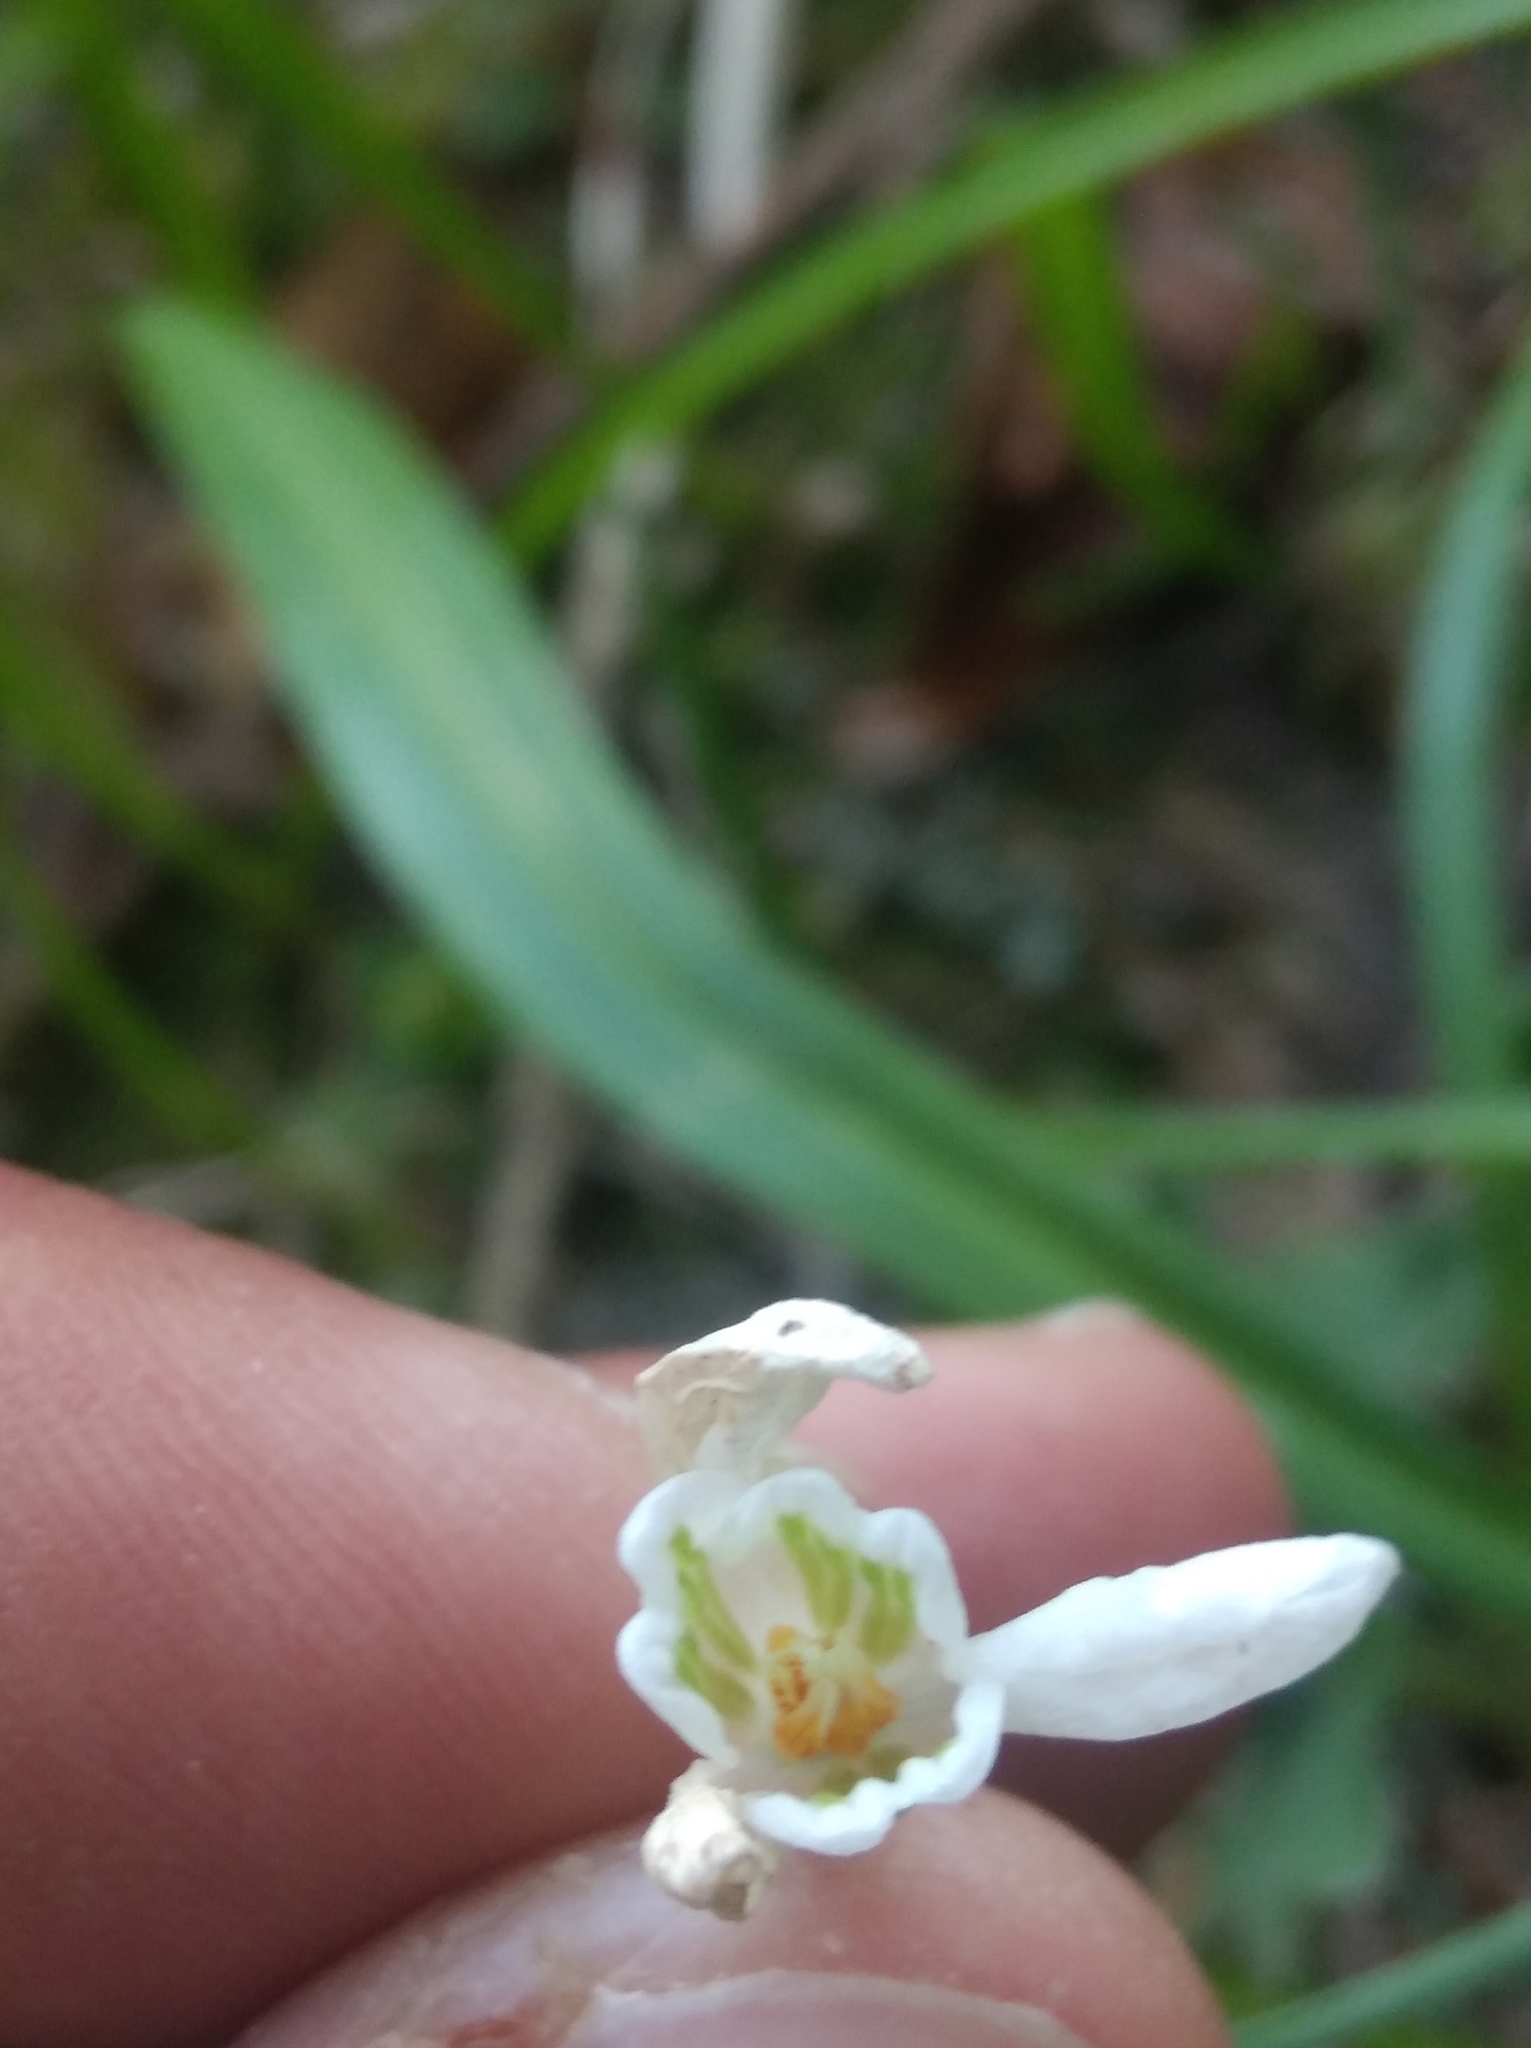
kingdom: Plantae
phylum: Tracheophyta
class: Liliopsida
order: Asparagales
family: Amaryllidaceae
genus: Galanthus
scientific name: Galanthus plicatus
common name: Pleated snowdrop
